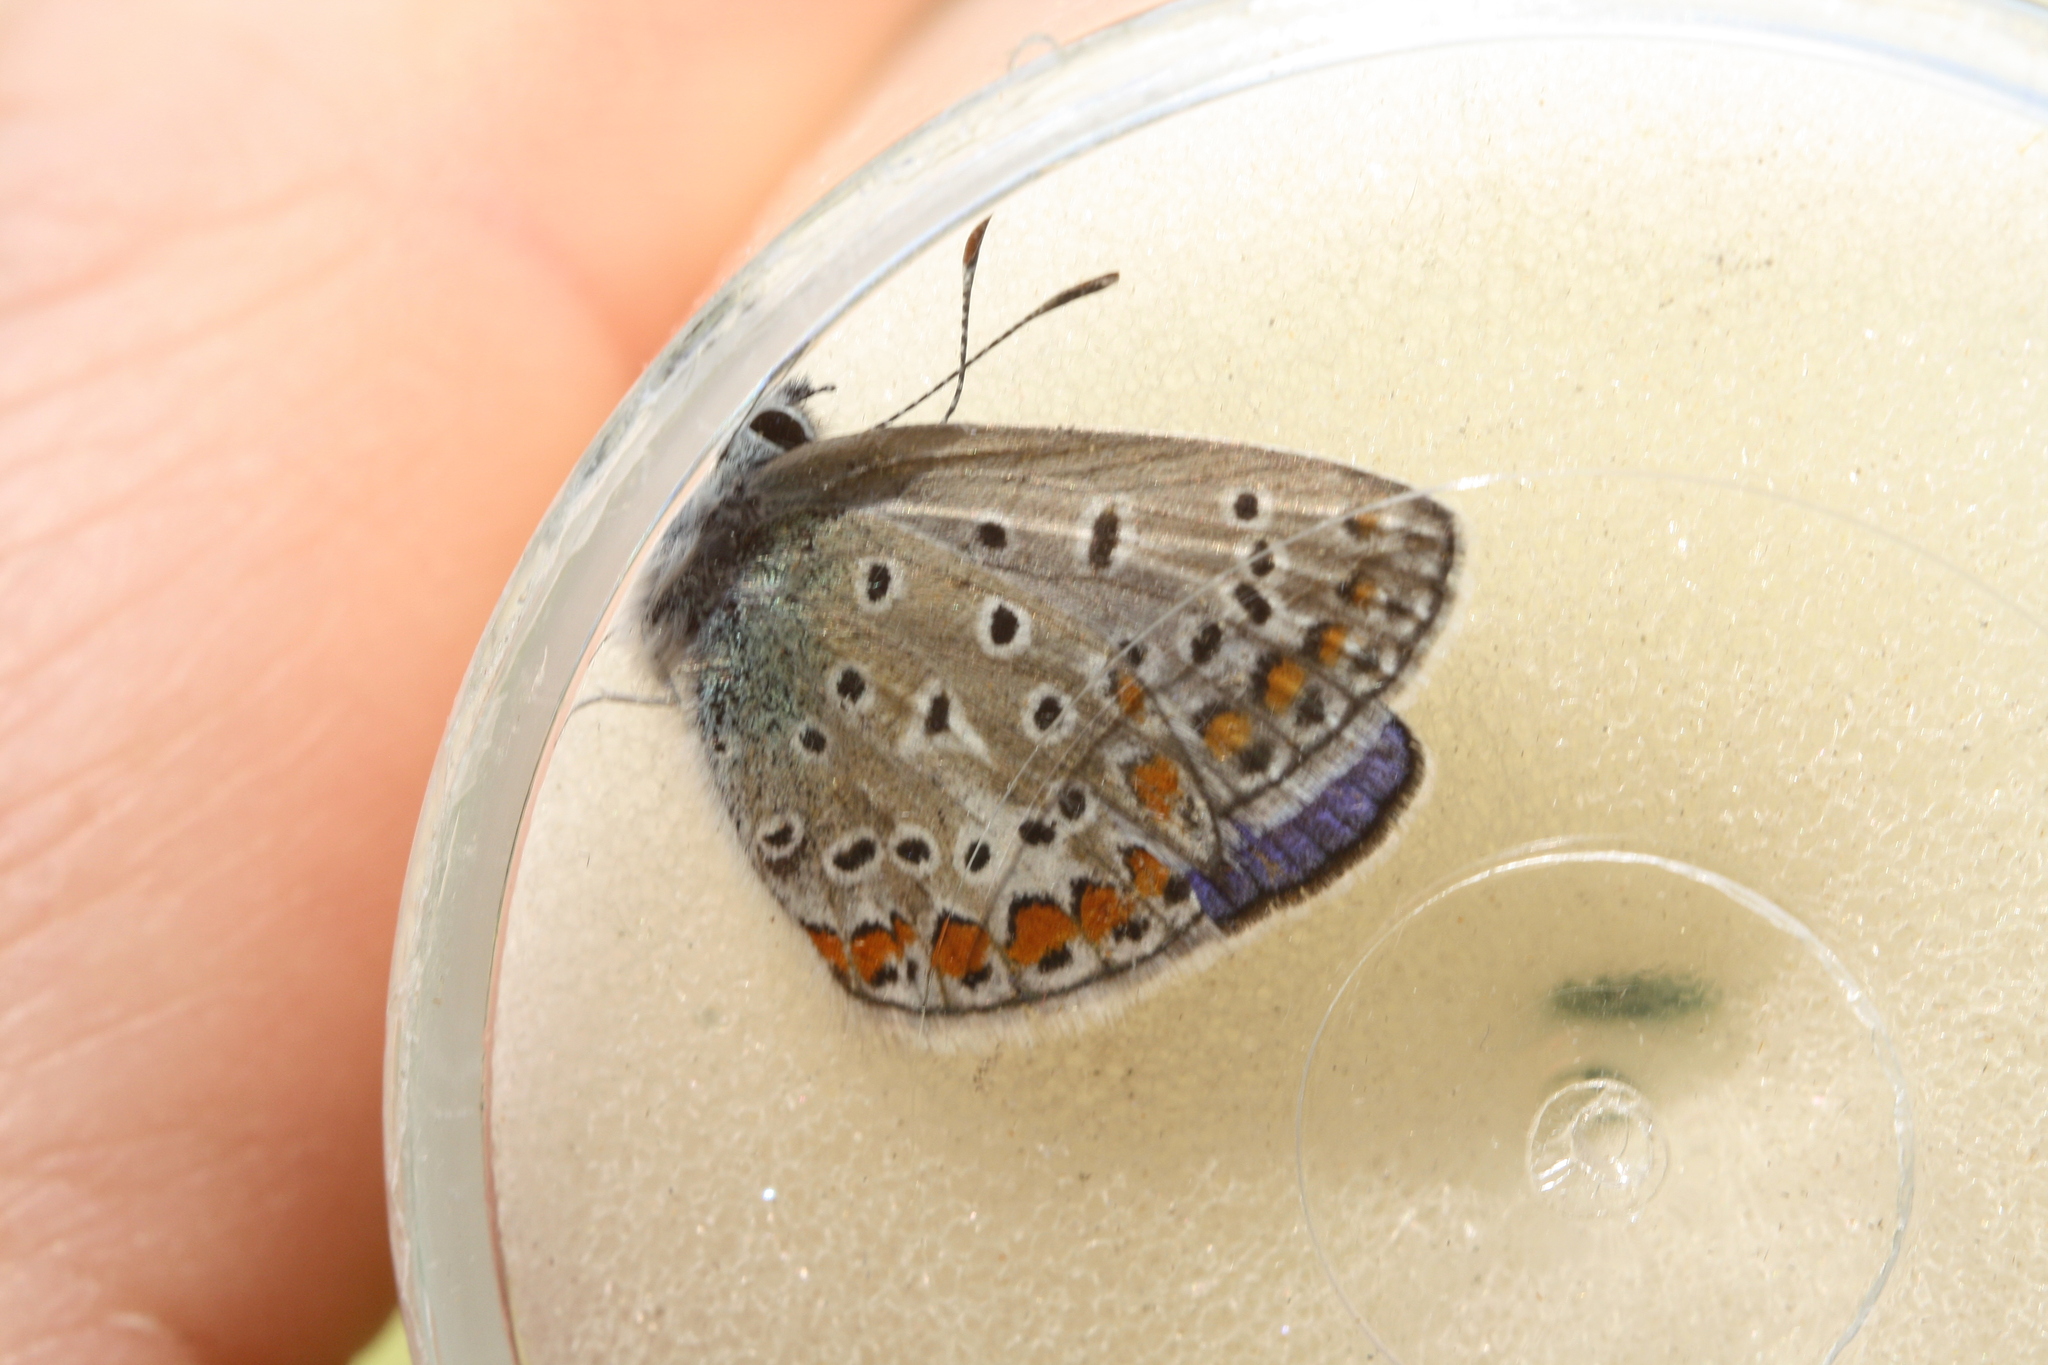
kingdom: Animalia
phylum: Arthropoda
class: Insecta
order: Lepidoptera
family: Lycaenidae
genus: Polyommatus
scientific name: Polyommatus icarus
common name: Common blue
